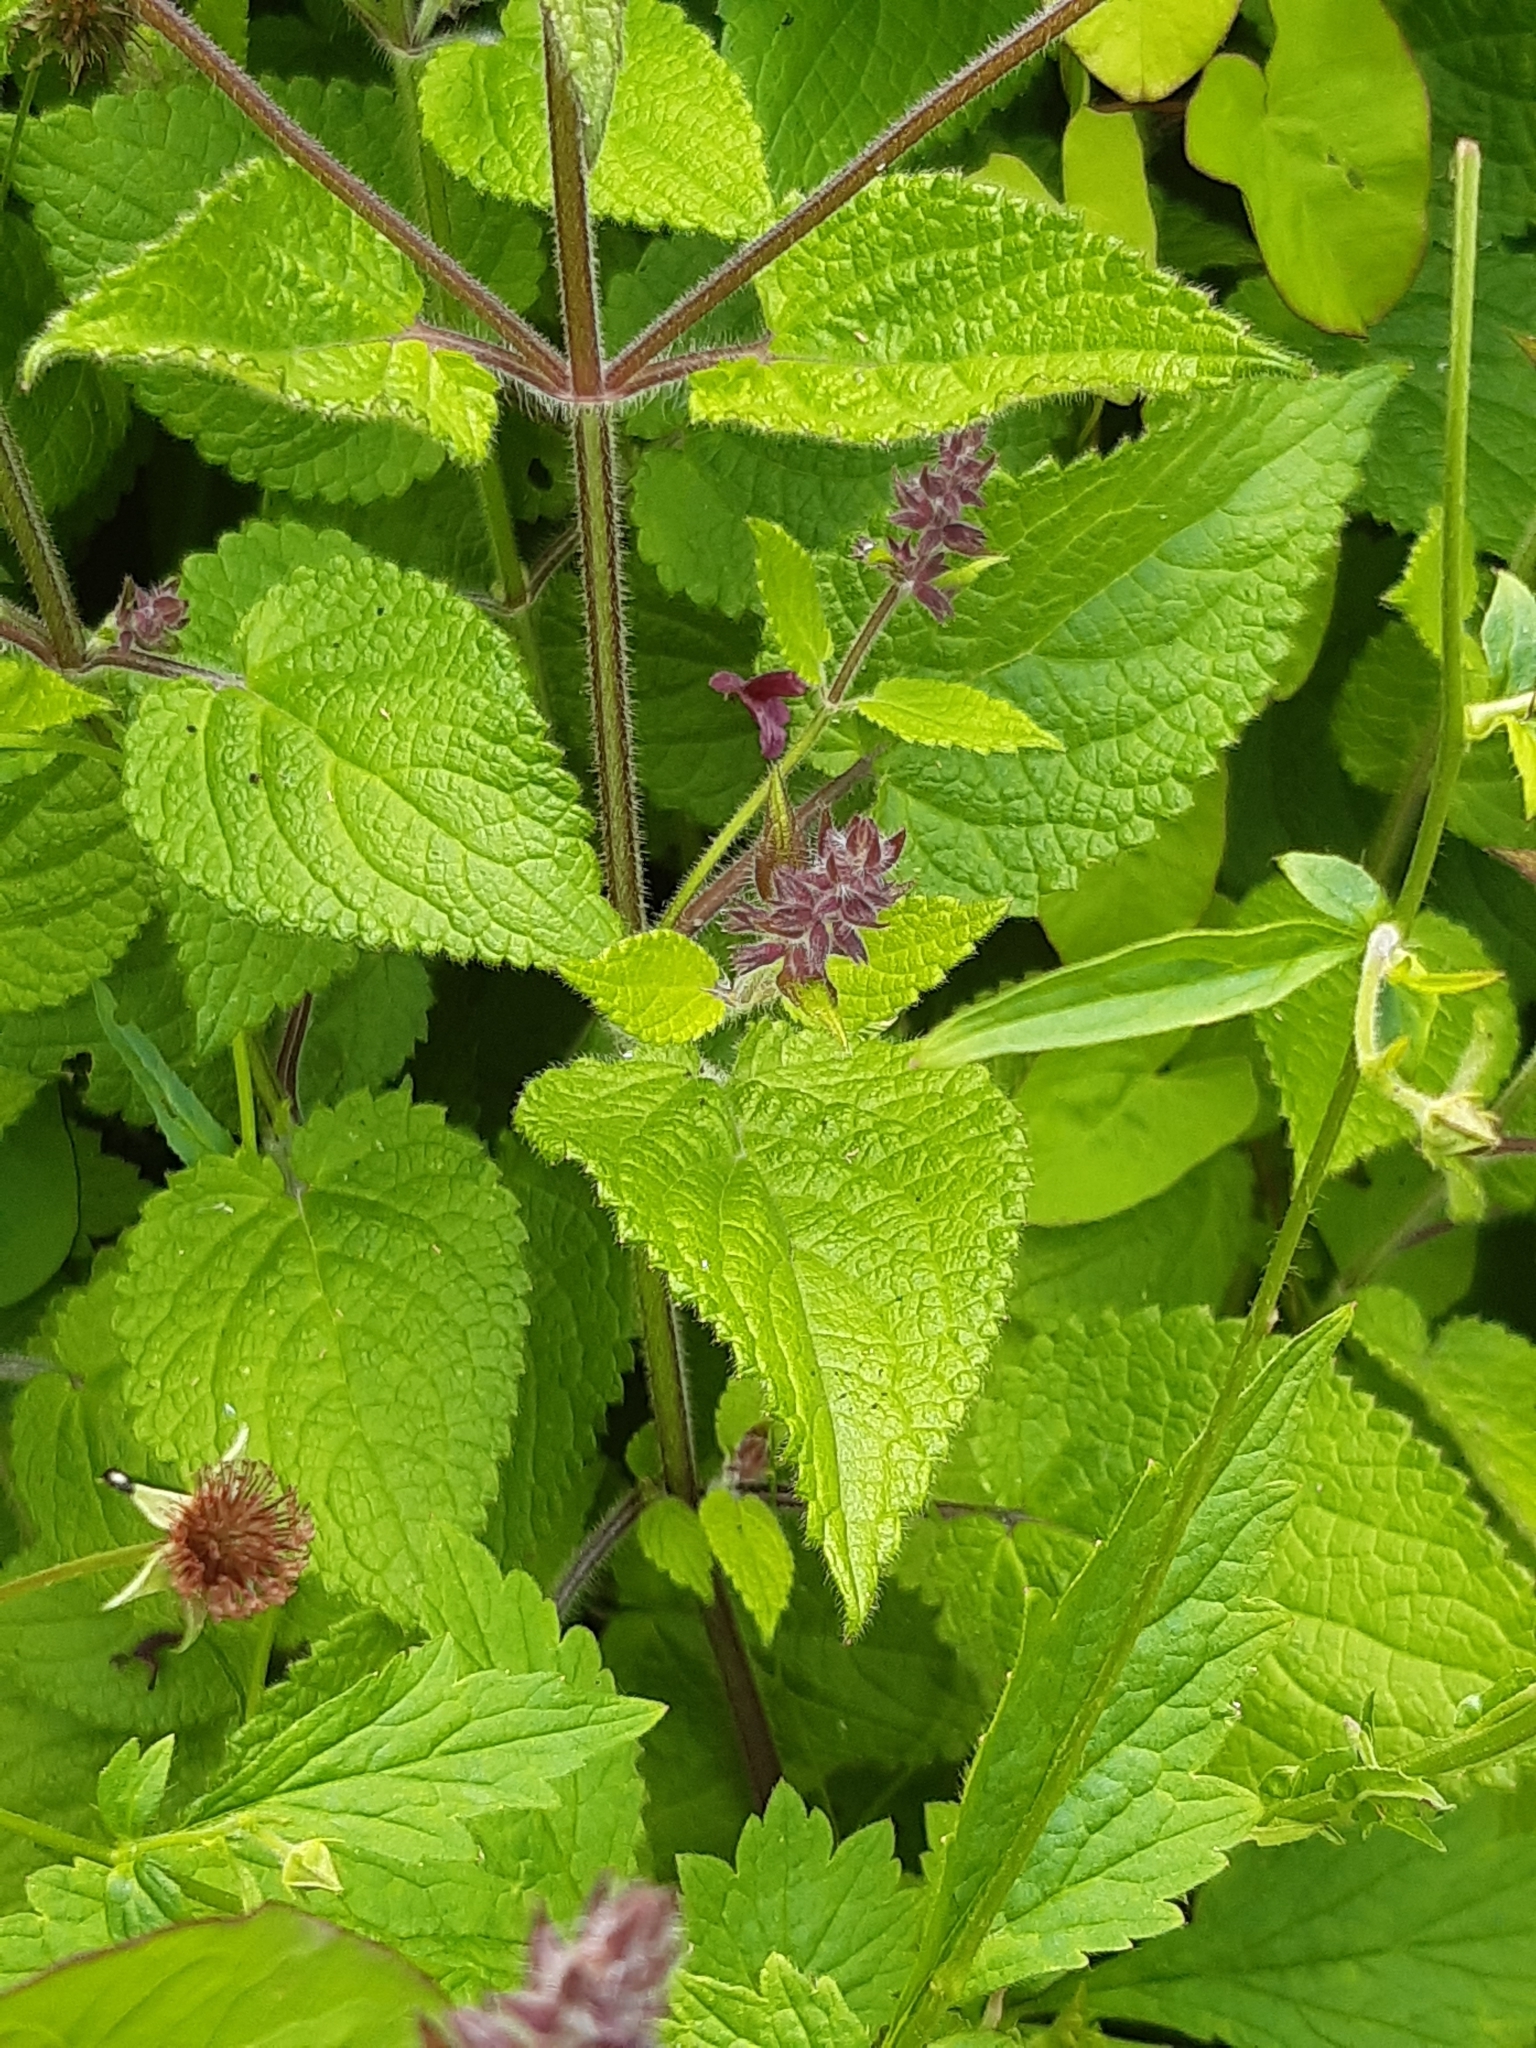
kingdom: Plantae
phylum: Tracheophyta
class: Magnoliopsida
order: Lamiales
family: Lamiaceae
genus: Stachys
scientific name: Stachys sylvatica
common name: Hedge woundwort
